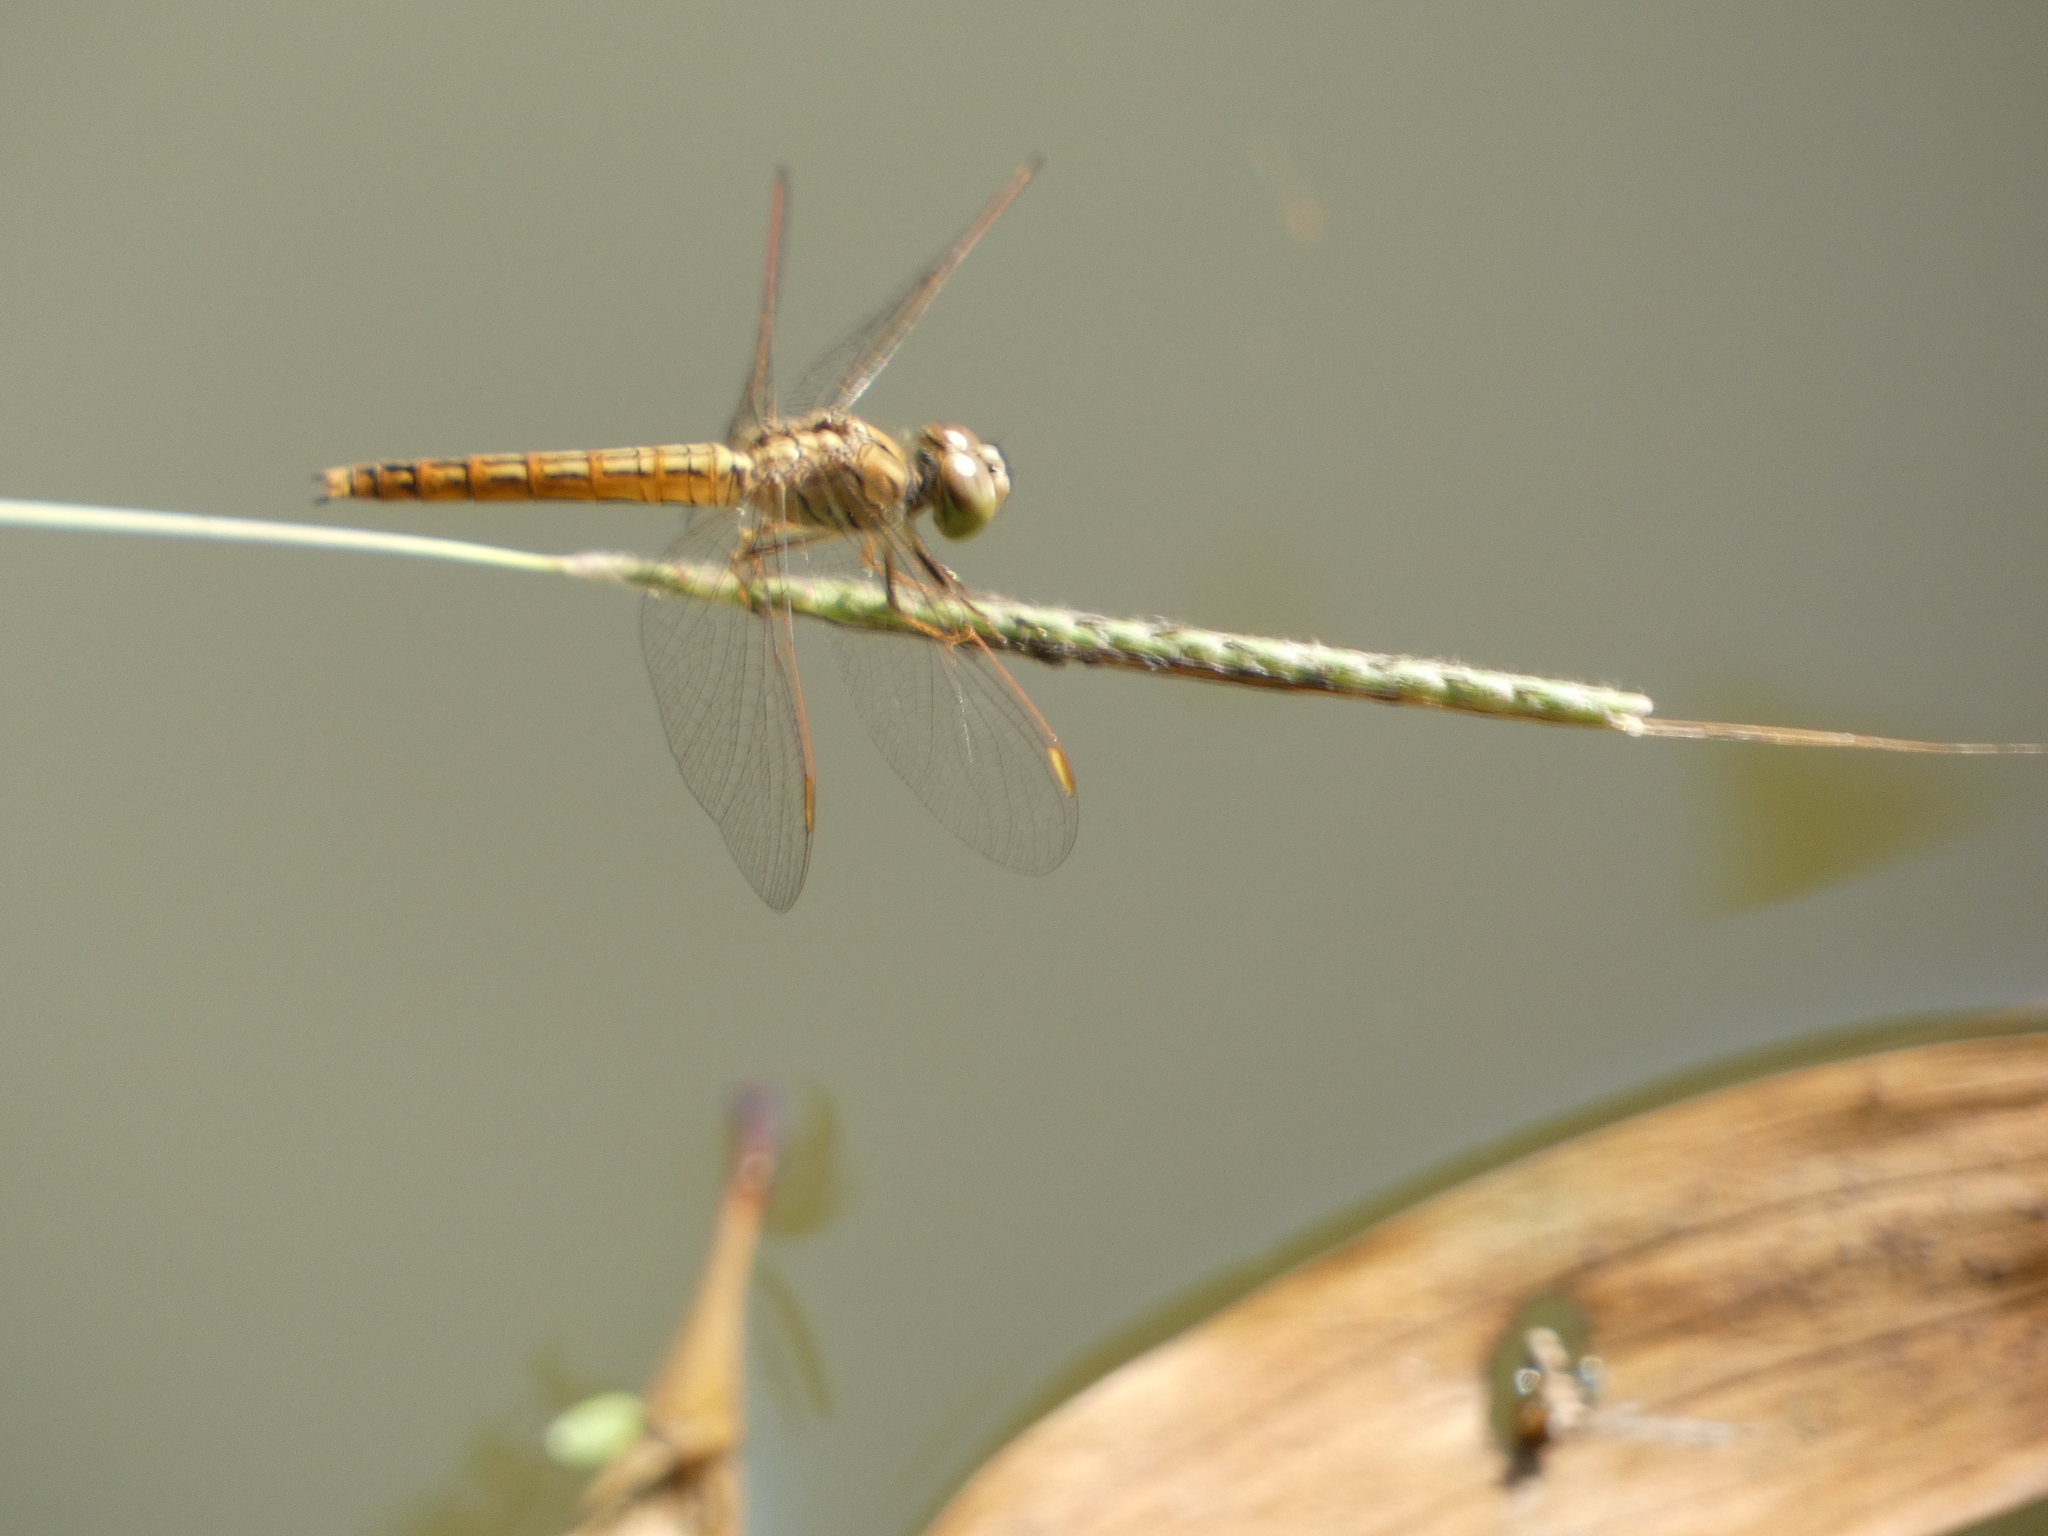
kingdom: Animalia
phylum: Arthropoda
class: Insecta
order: Odonata
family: Libellulidae
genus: Brachythemis
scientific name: Brachythemis contaminata
